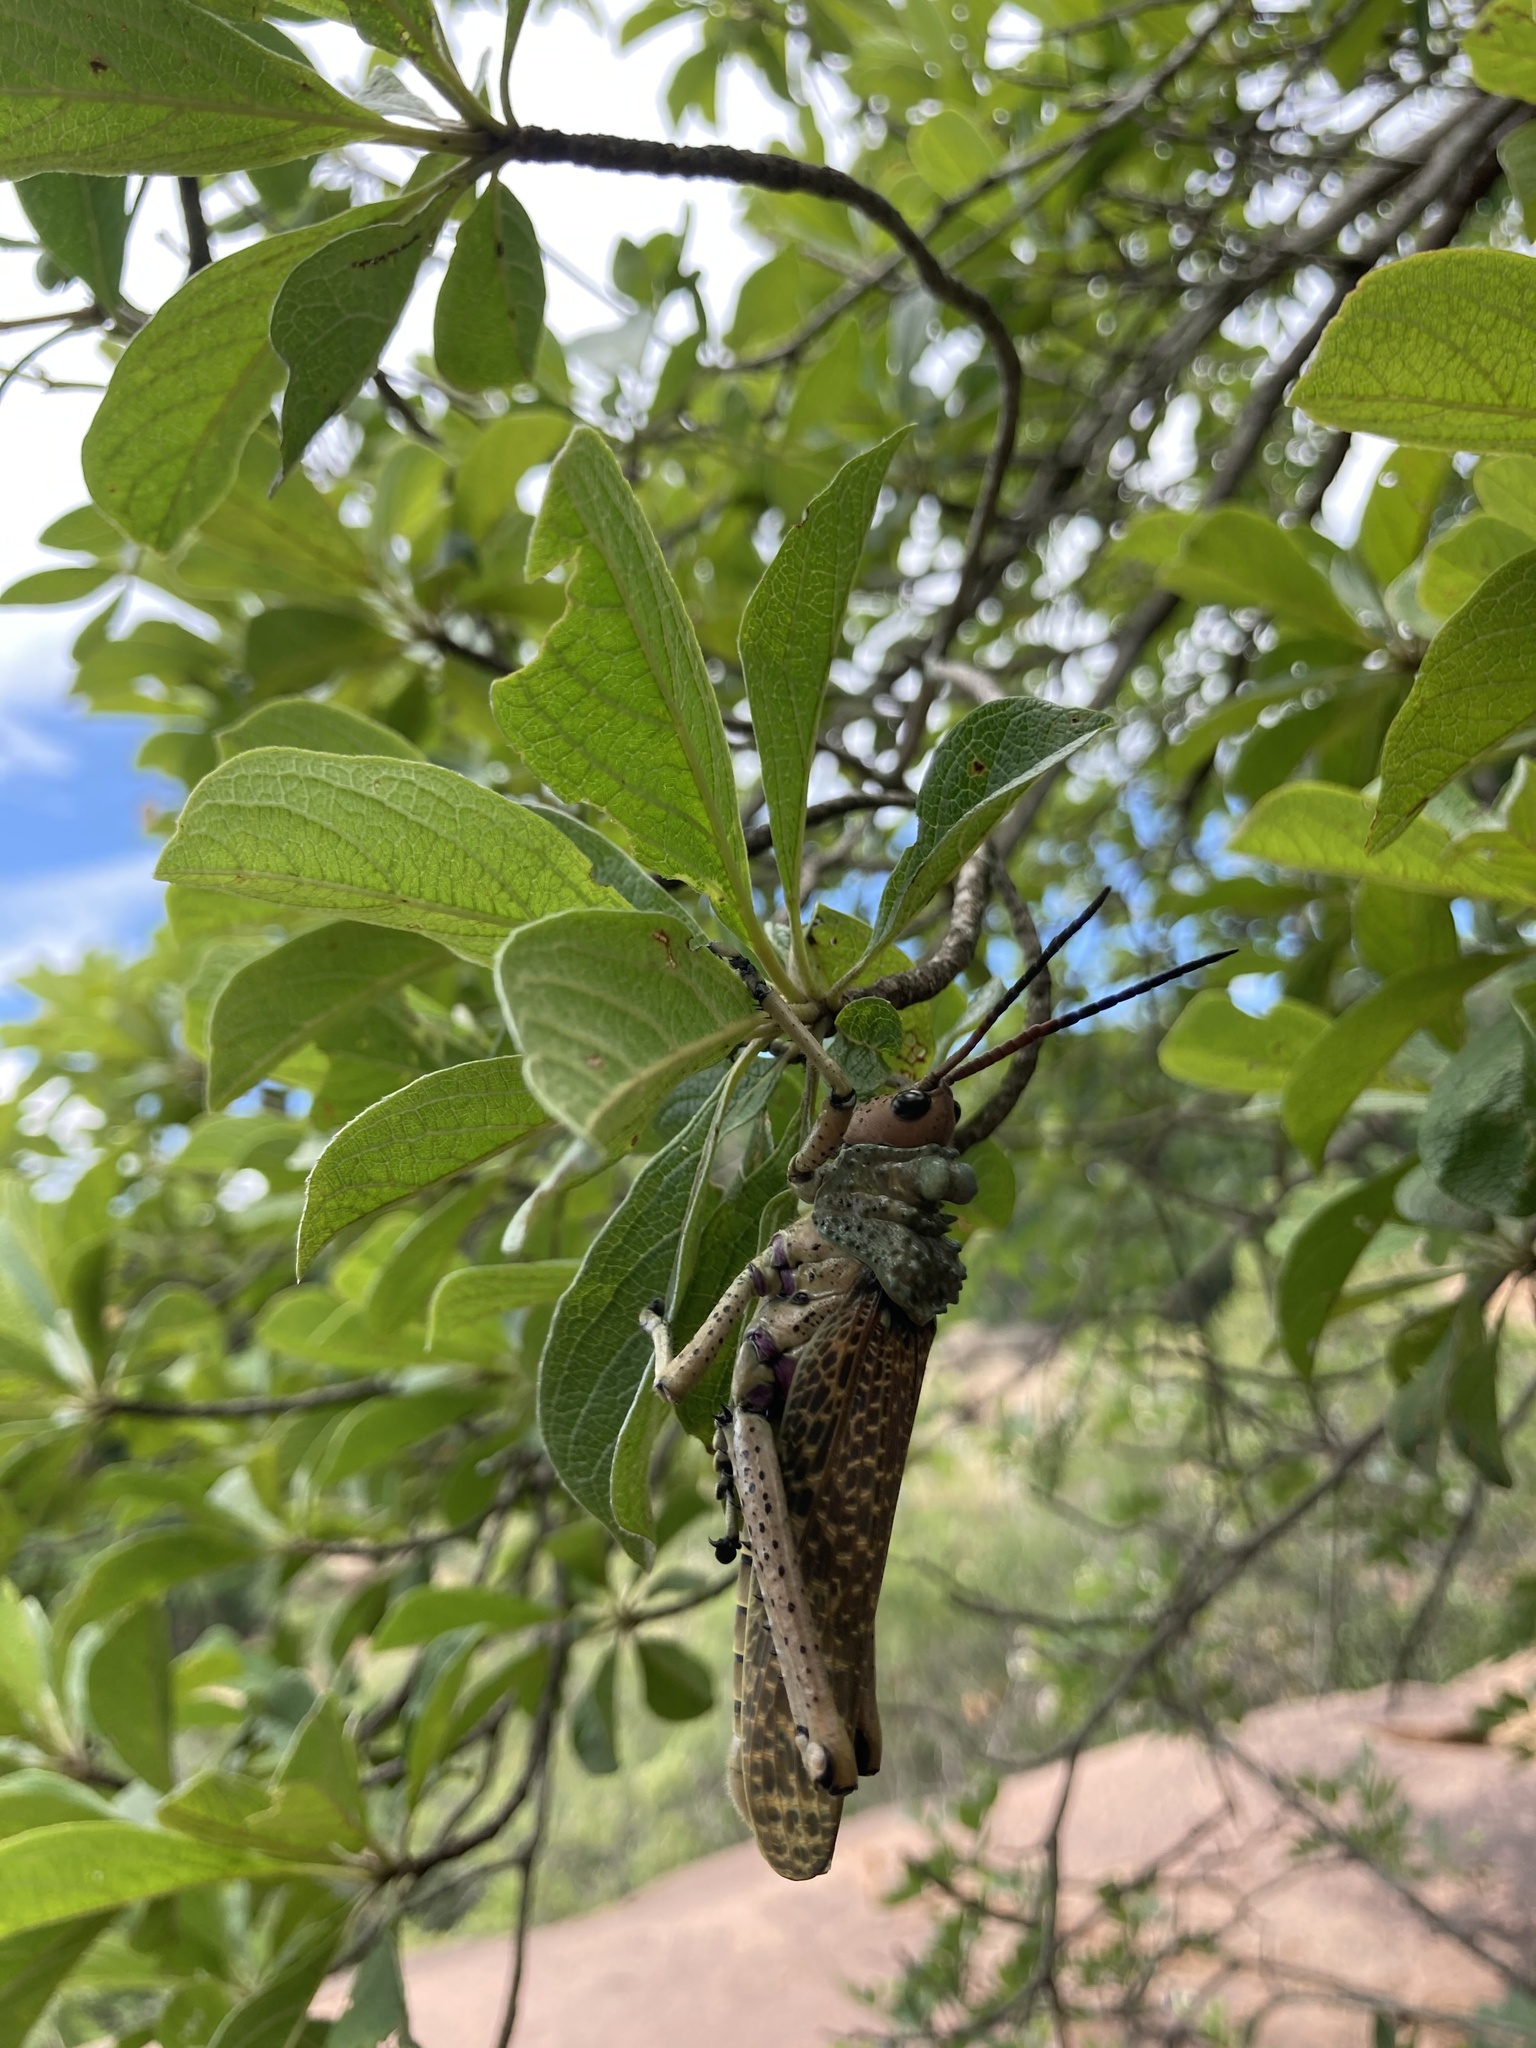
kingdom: Animalia
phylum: Arthropoda
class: Insecta
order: Orthoptera
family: Pyrgomorphidae
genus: Phymateus
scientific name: Phymateus leprosus
